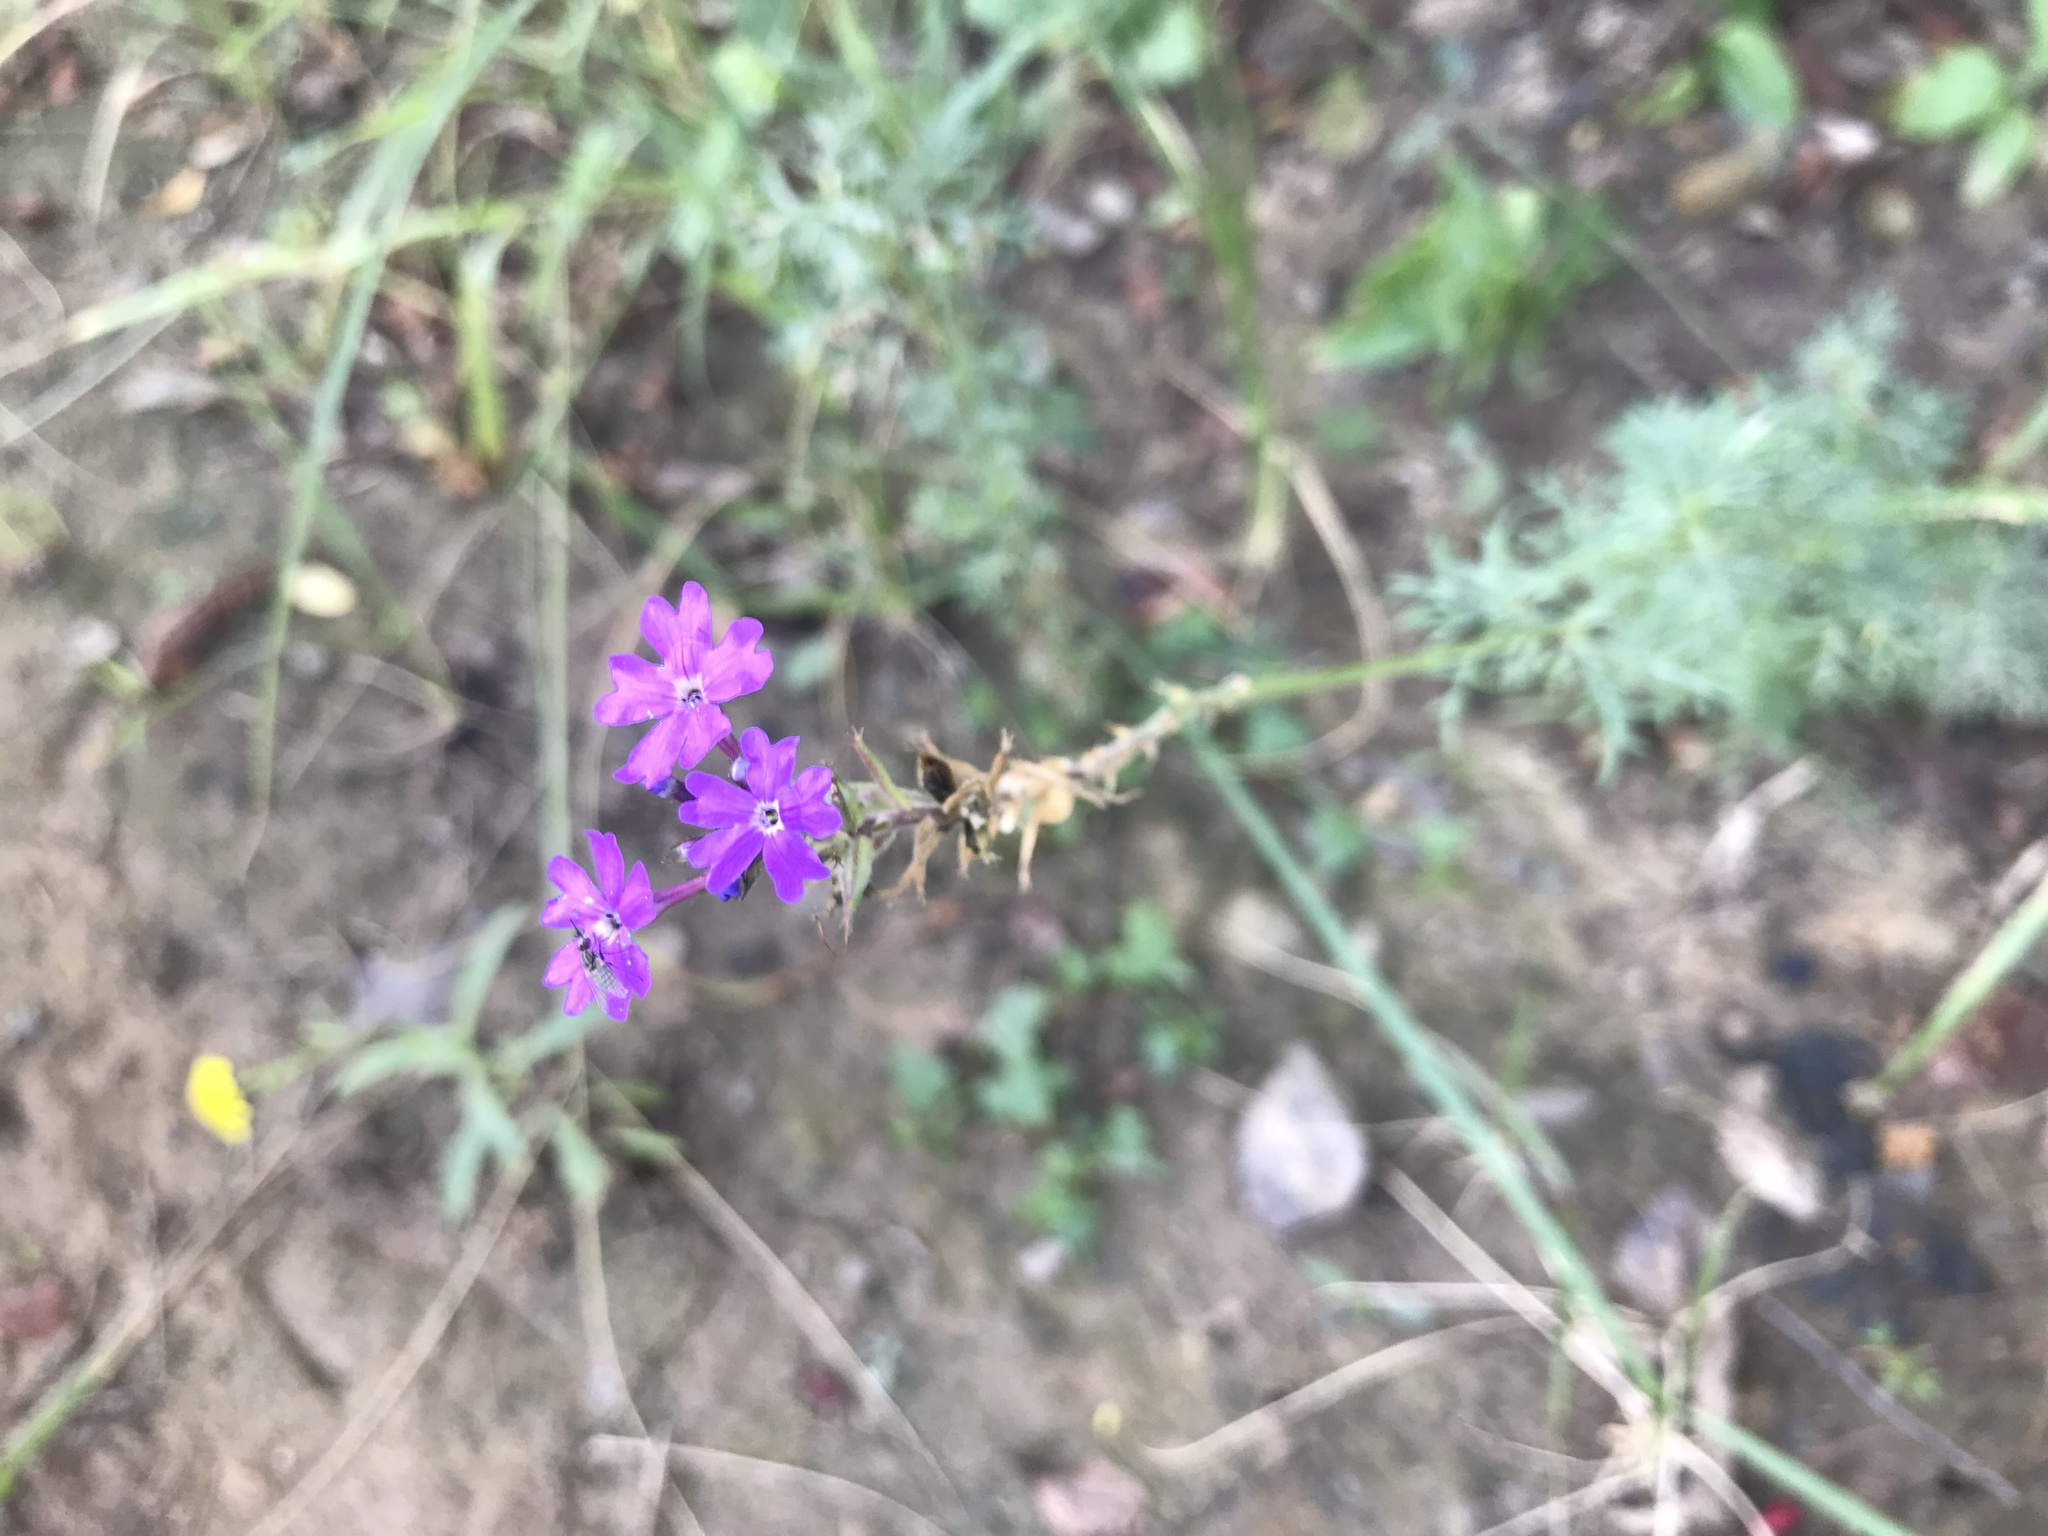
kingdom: Plantae
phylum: Tracheophyta
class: Magnoliopsida
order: Lamiales
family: Verbenaceae
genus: Verbena
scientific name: Verbena aristigera
